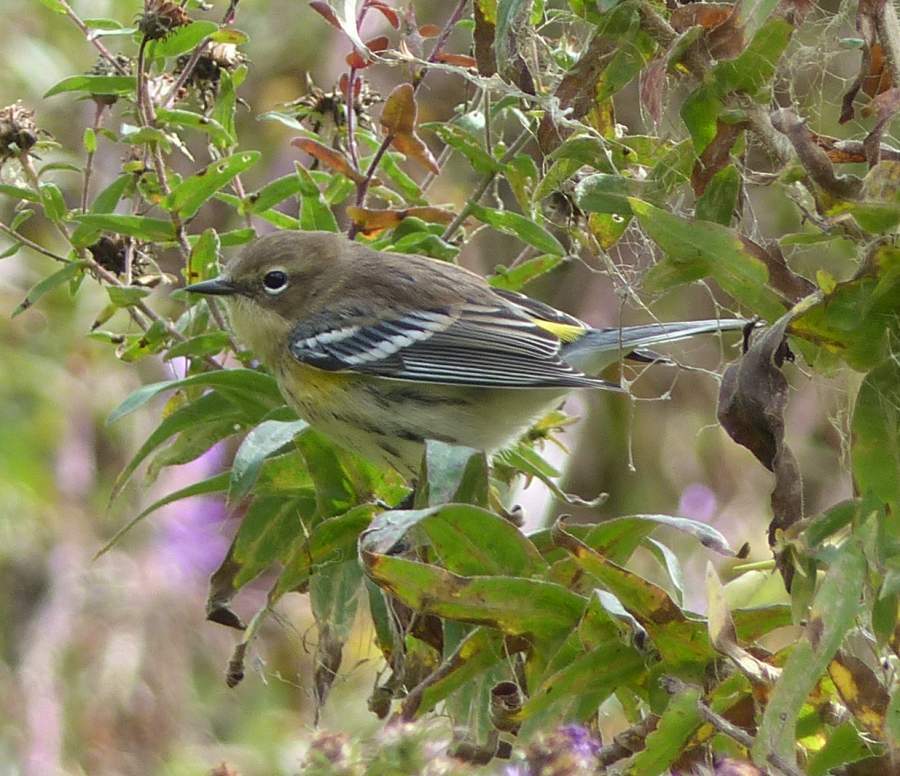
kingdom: Animalia
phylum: Chordata
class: Aves
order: Passeriformes
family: Parulidae
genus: Setophaga
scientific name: Setophaga coronata
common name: Myrtle warbler
